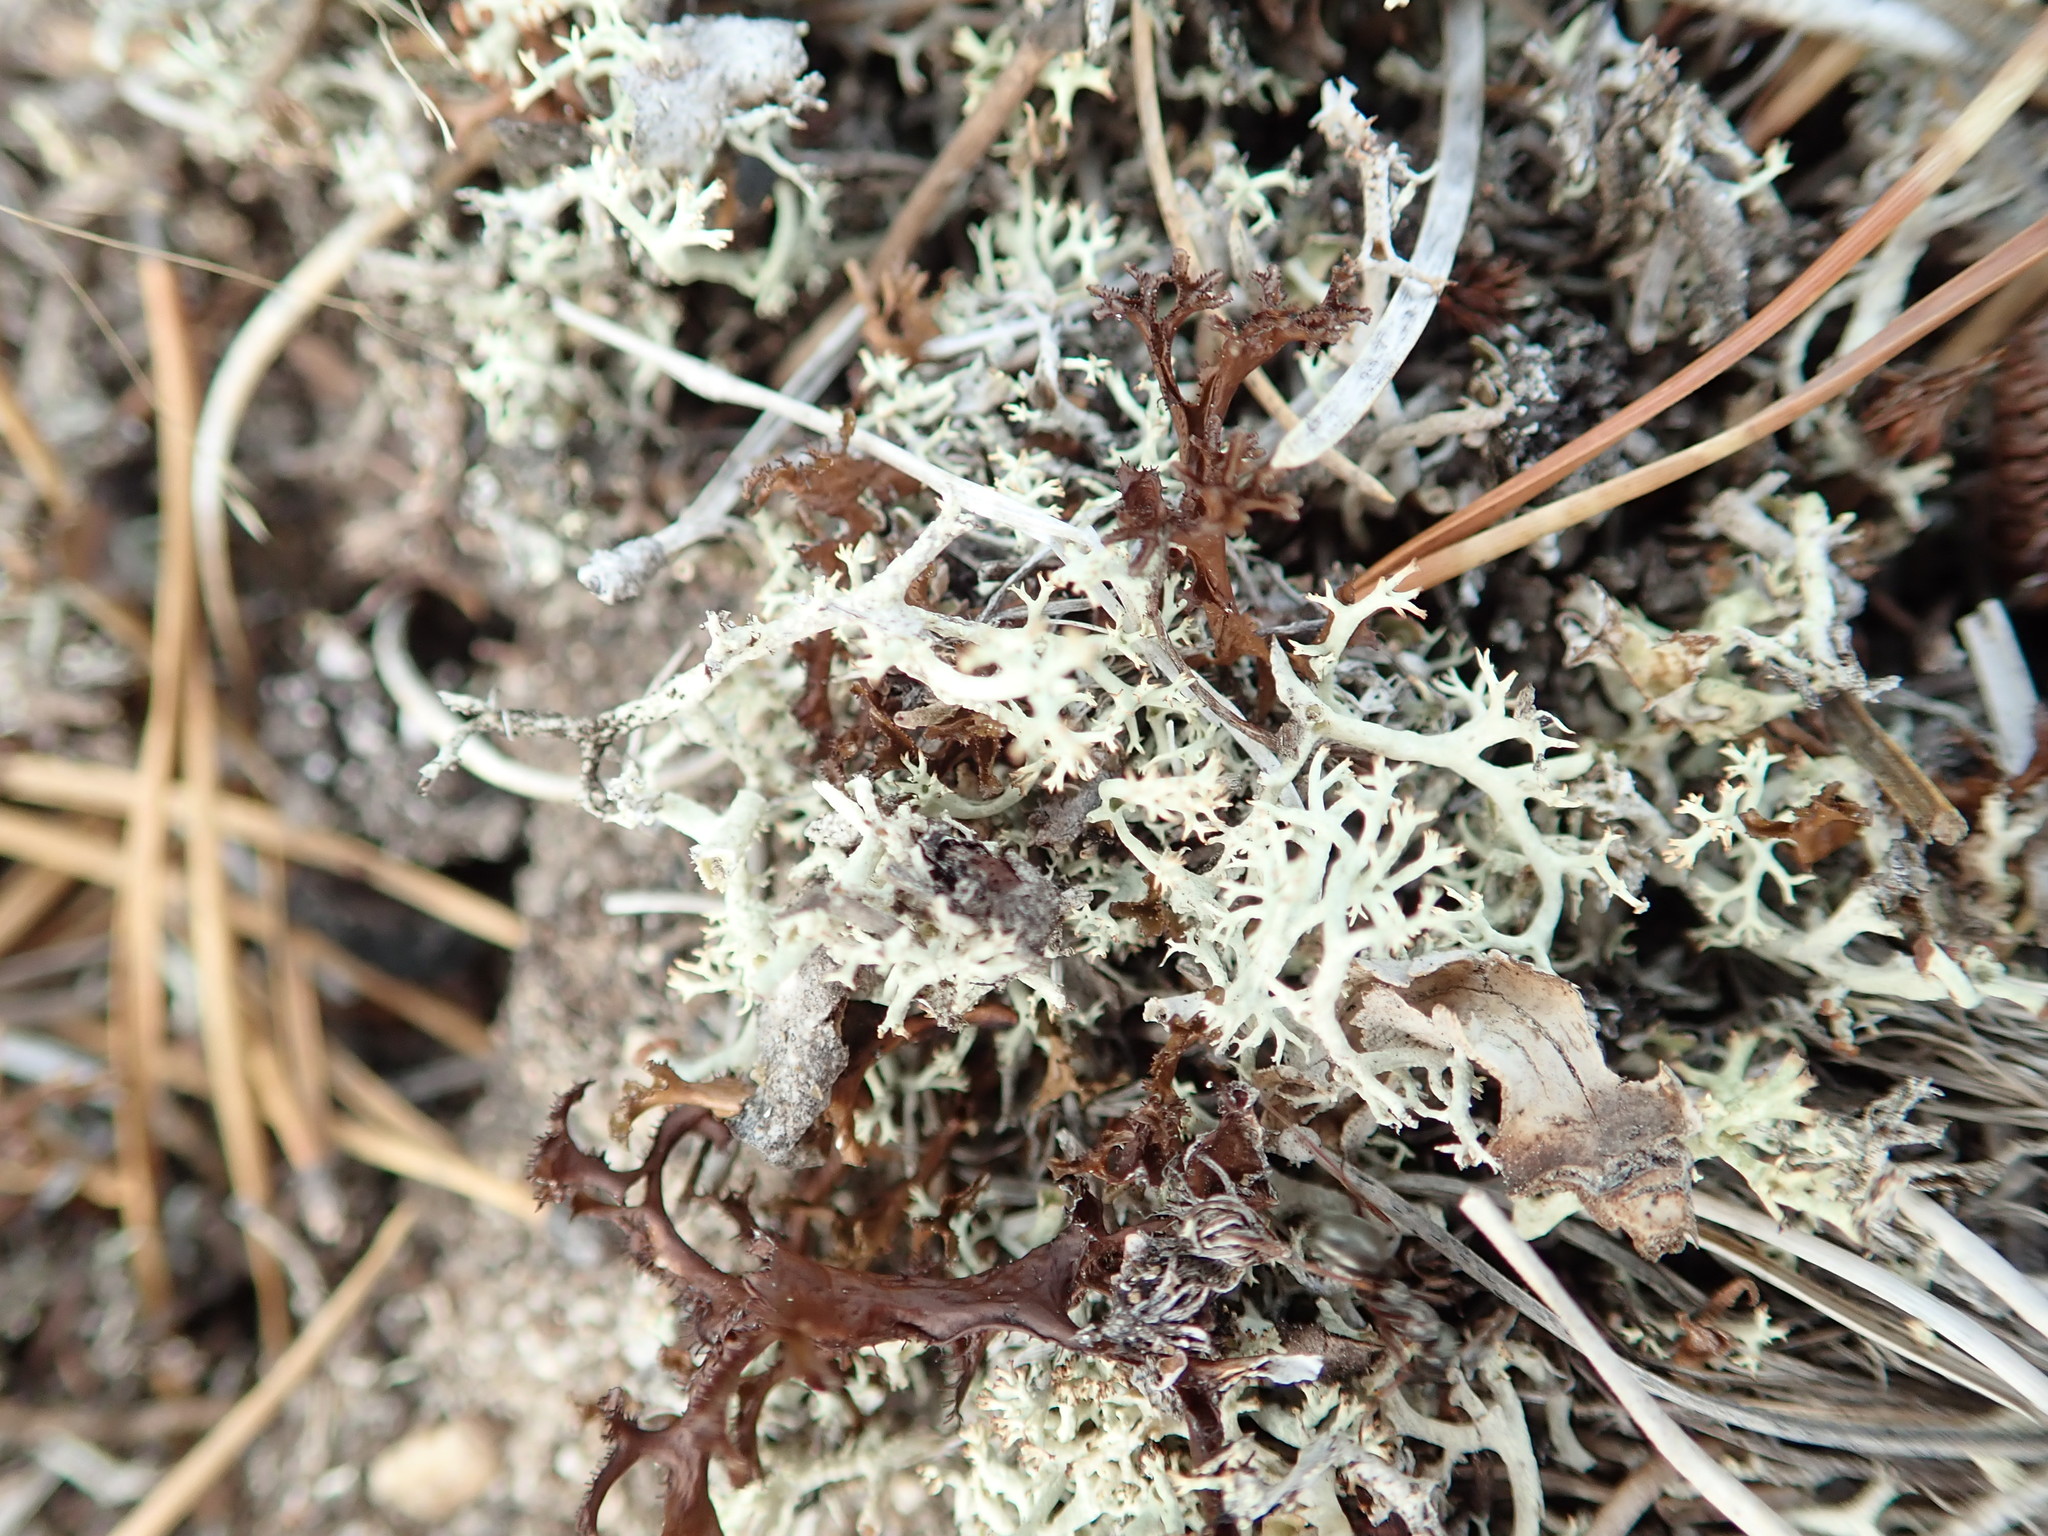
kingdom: Fungi
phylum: Ascomycota
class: Lecanoromycetes
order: Lecanorales
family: Parmeliaceae
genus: Cetraria
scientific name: Cetraria islandica
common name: Iceland lichen
